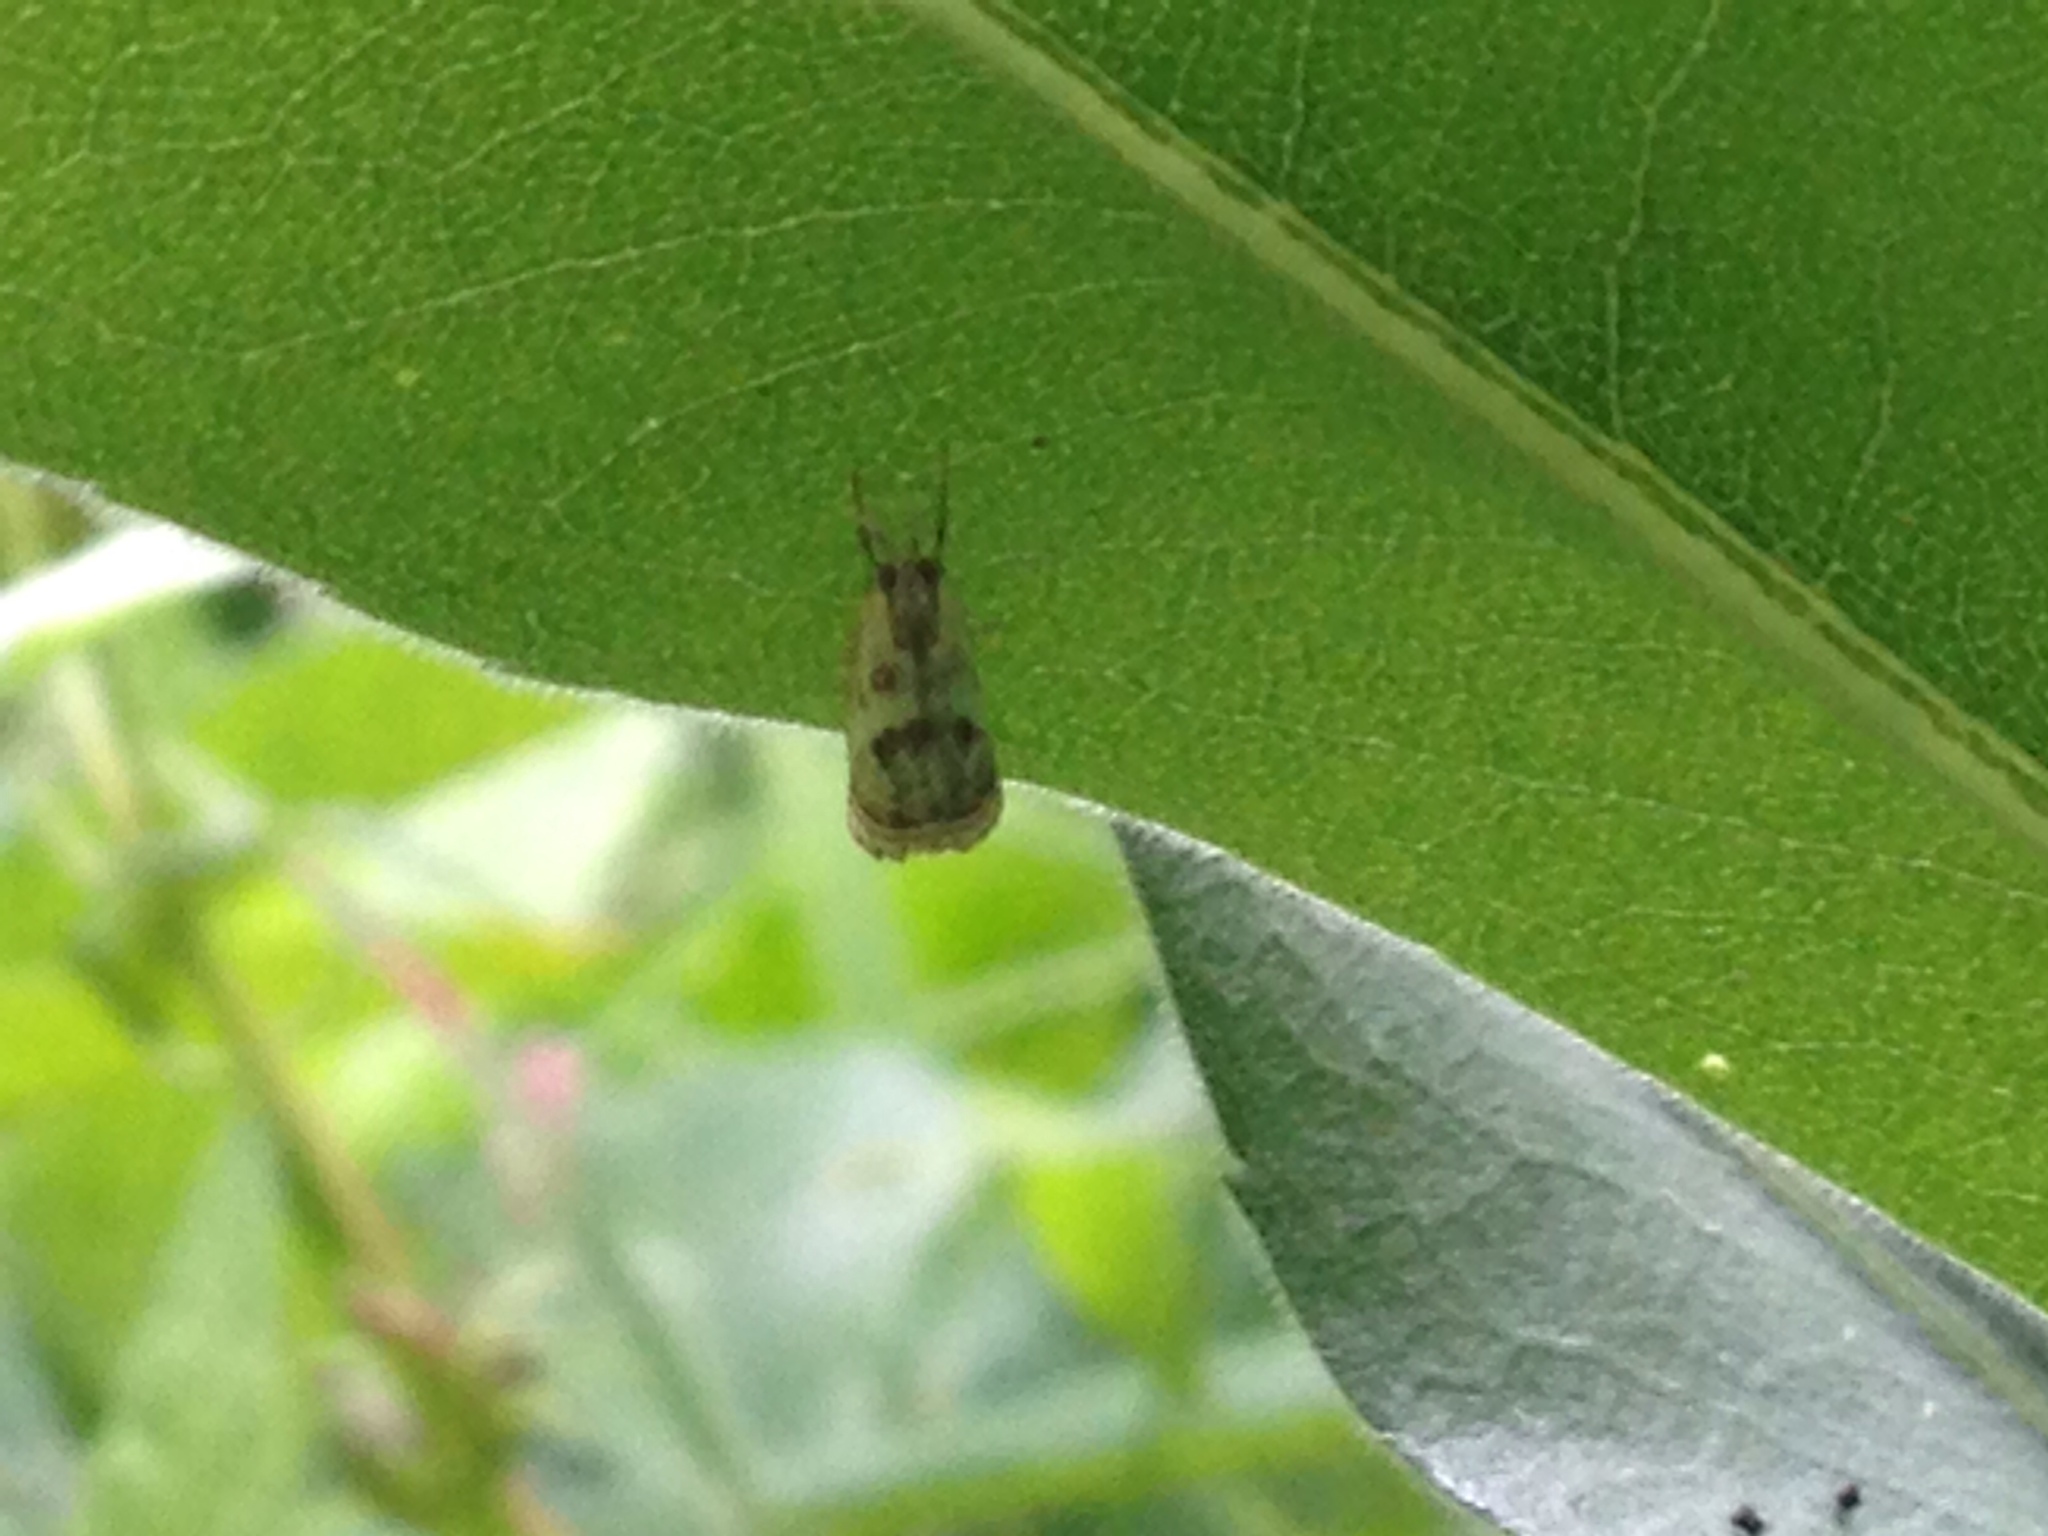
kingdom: Animalia
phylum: Arthropoda
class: Insecta
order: Lepidoptera
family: Crambidae
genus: Microcrambus
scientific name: Microcrambus elegans
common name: Elegant grass-veneer
